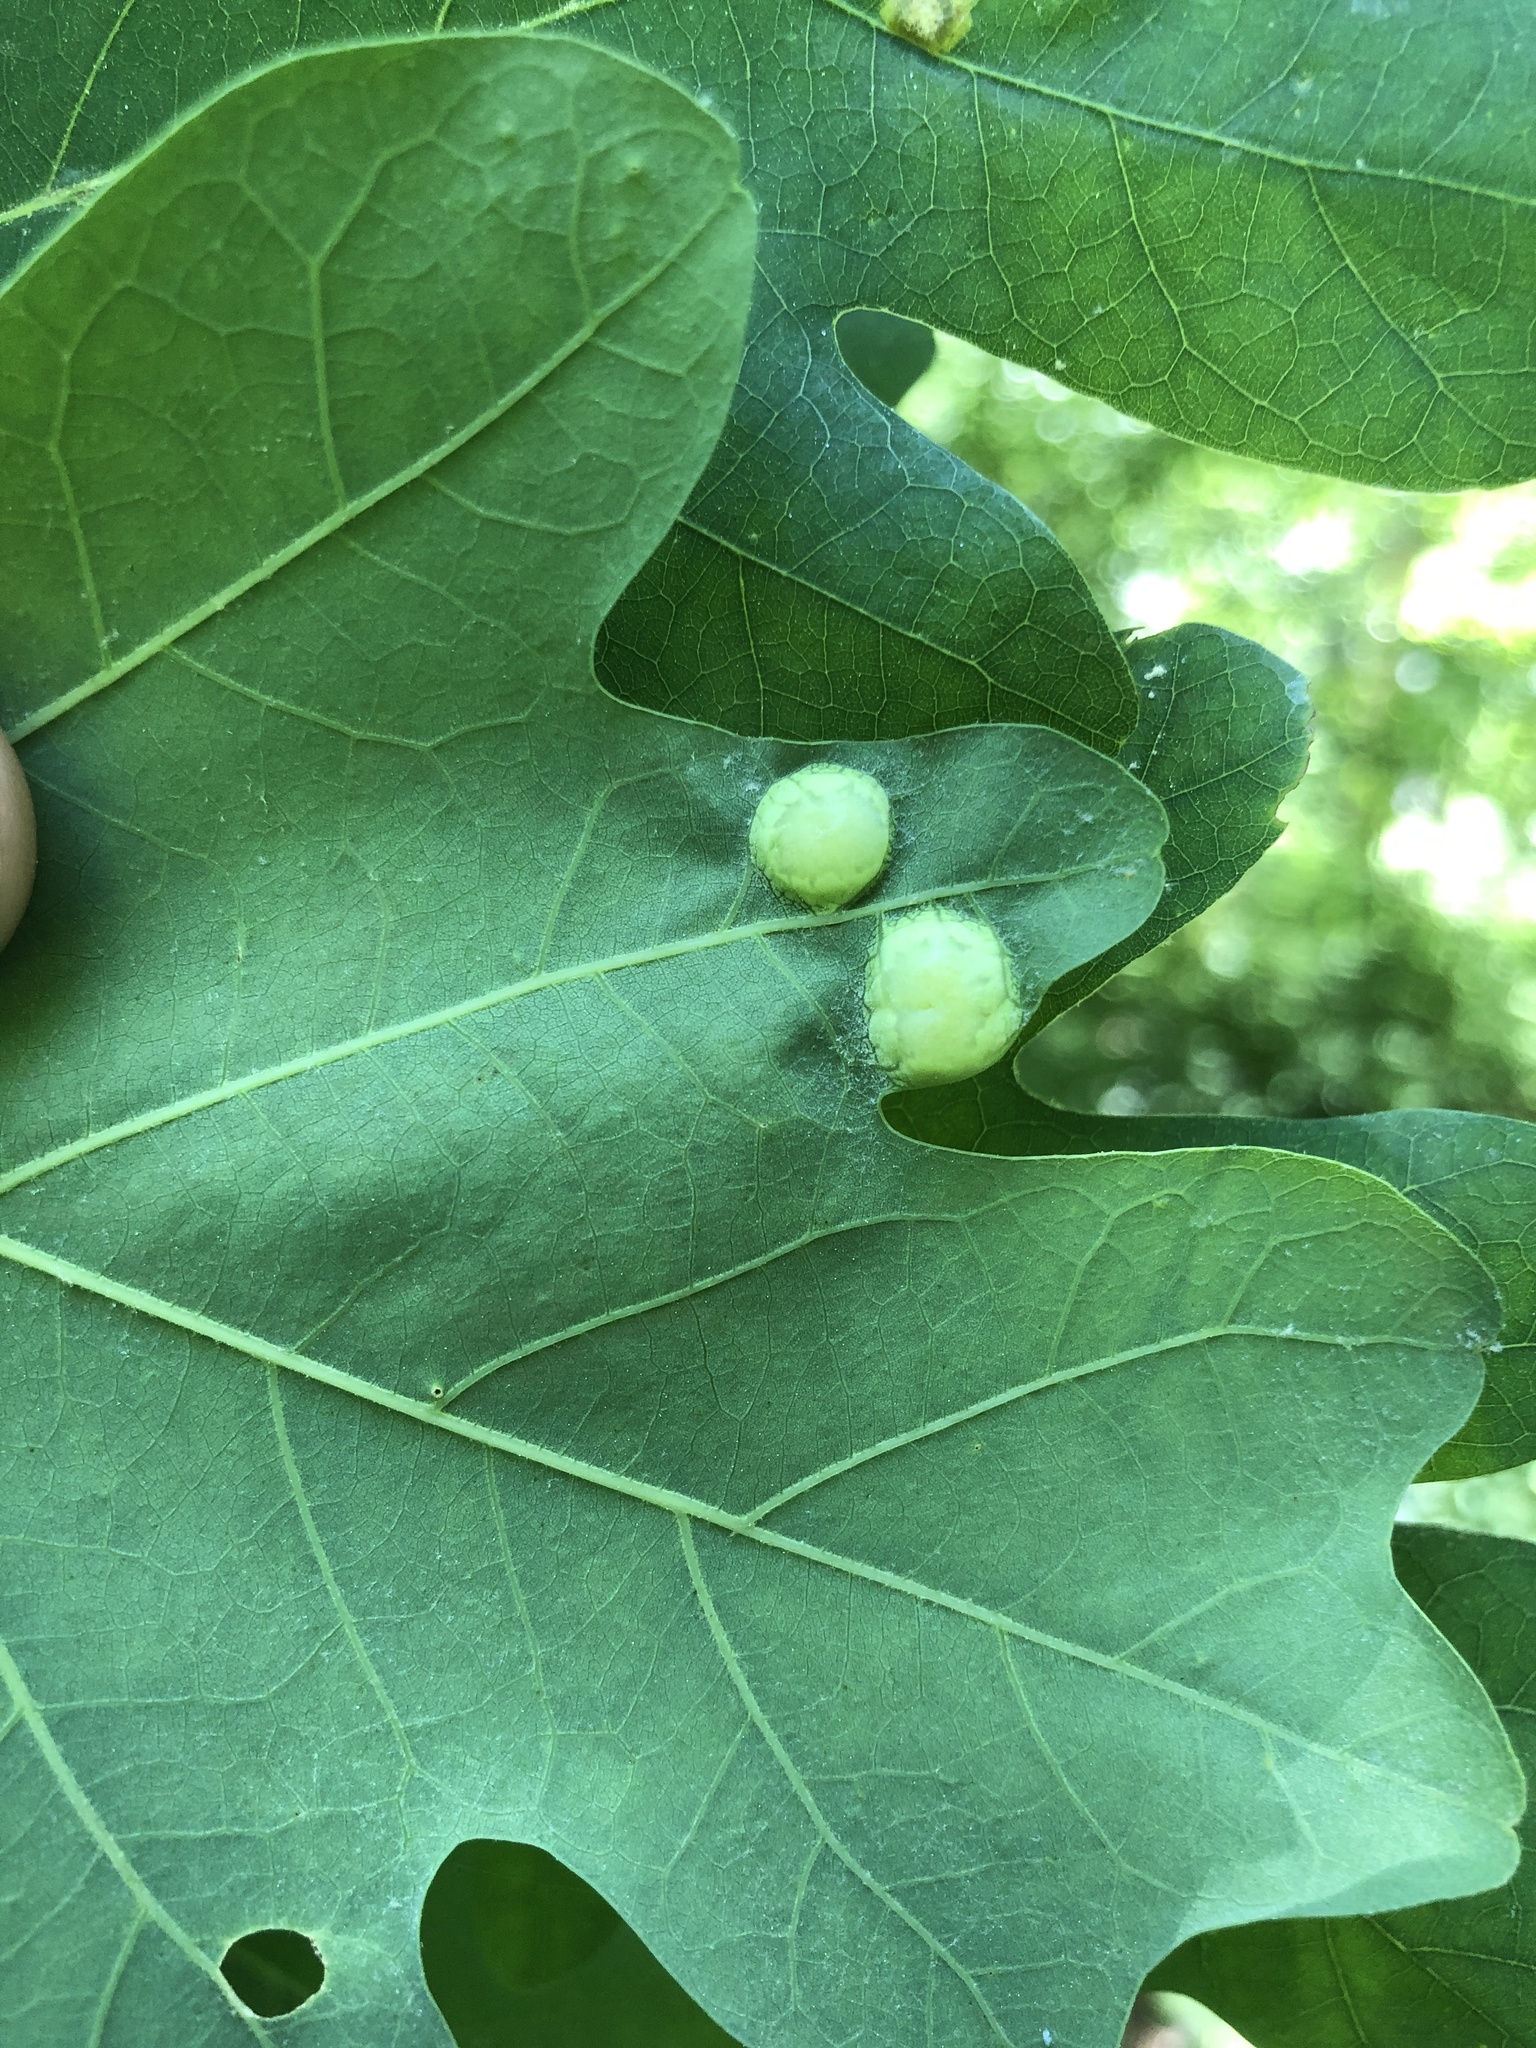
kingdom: Animalia
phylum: Arthropoda
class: Insecta
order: Hymenoptera
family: Cynipidae
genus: Callirhytis
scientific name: Callirhytis
